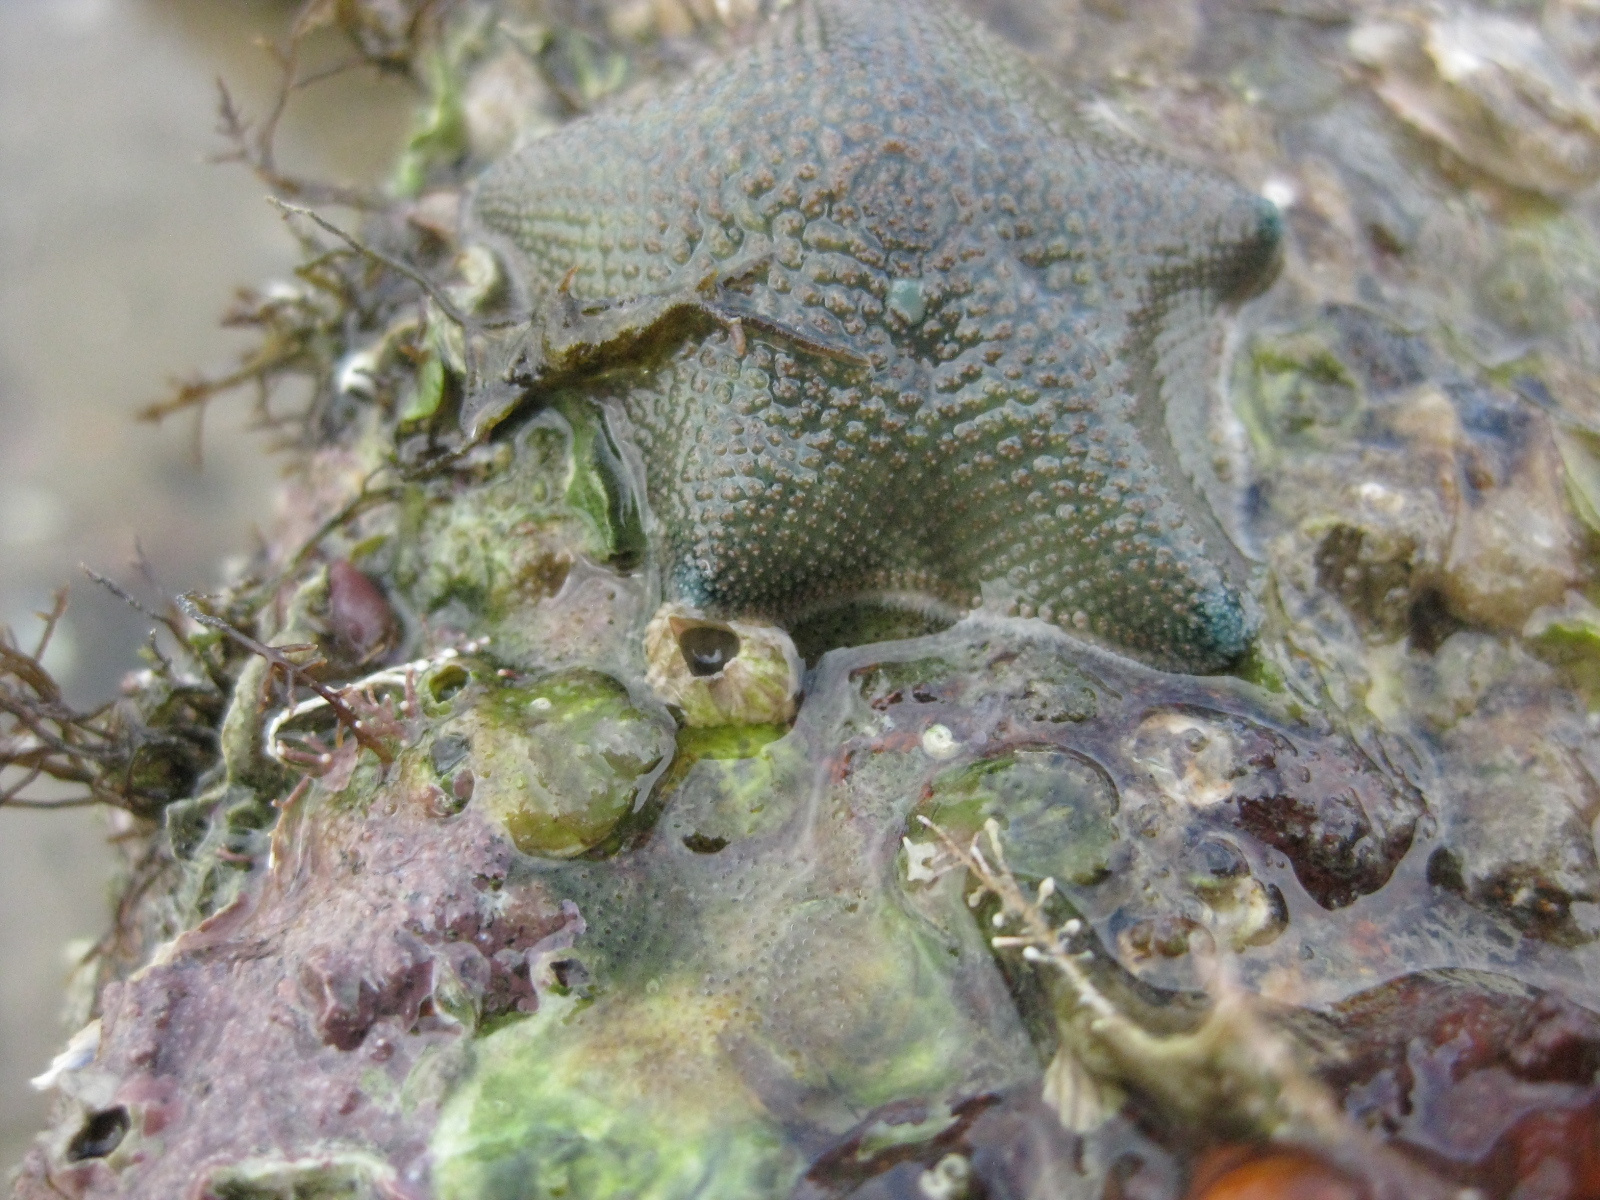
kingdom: Animalia
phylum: Echinodermata
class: Asteroidea
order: Valvatida
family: Asterinidae
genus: Patiriella
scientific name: Patiriella regularis
